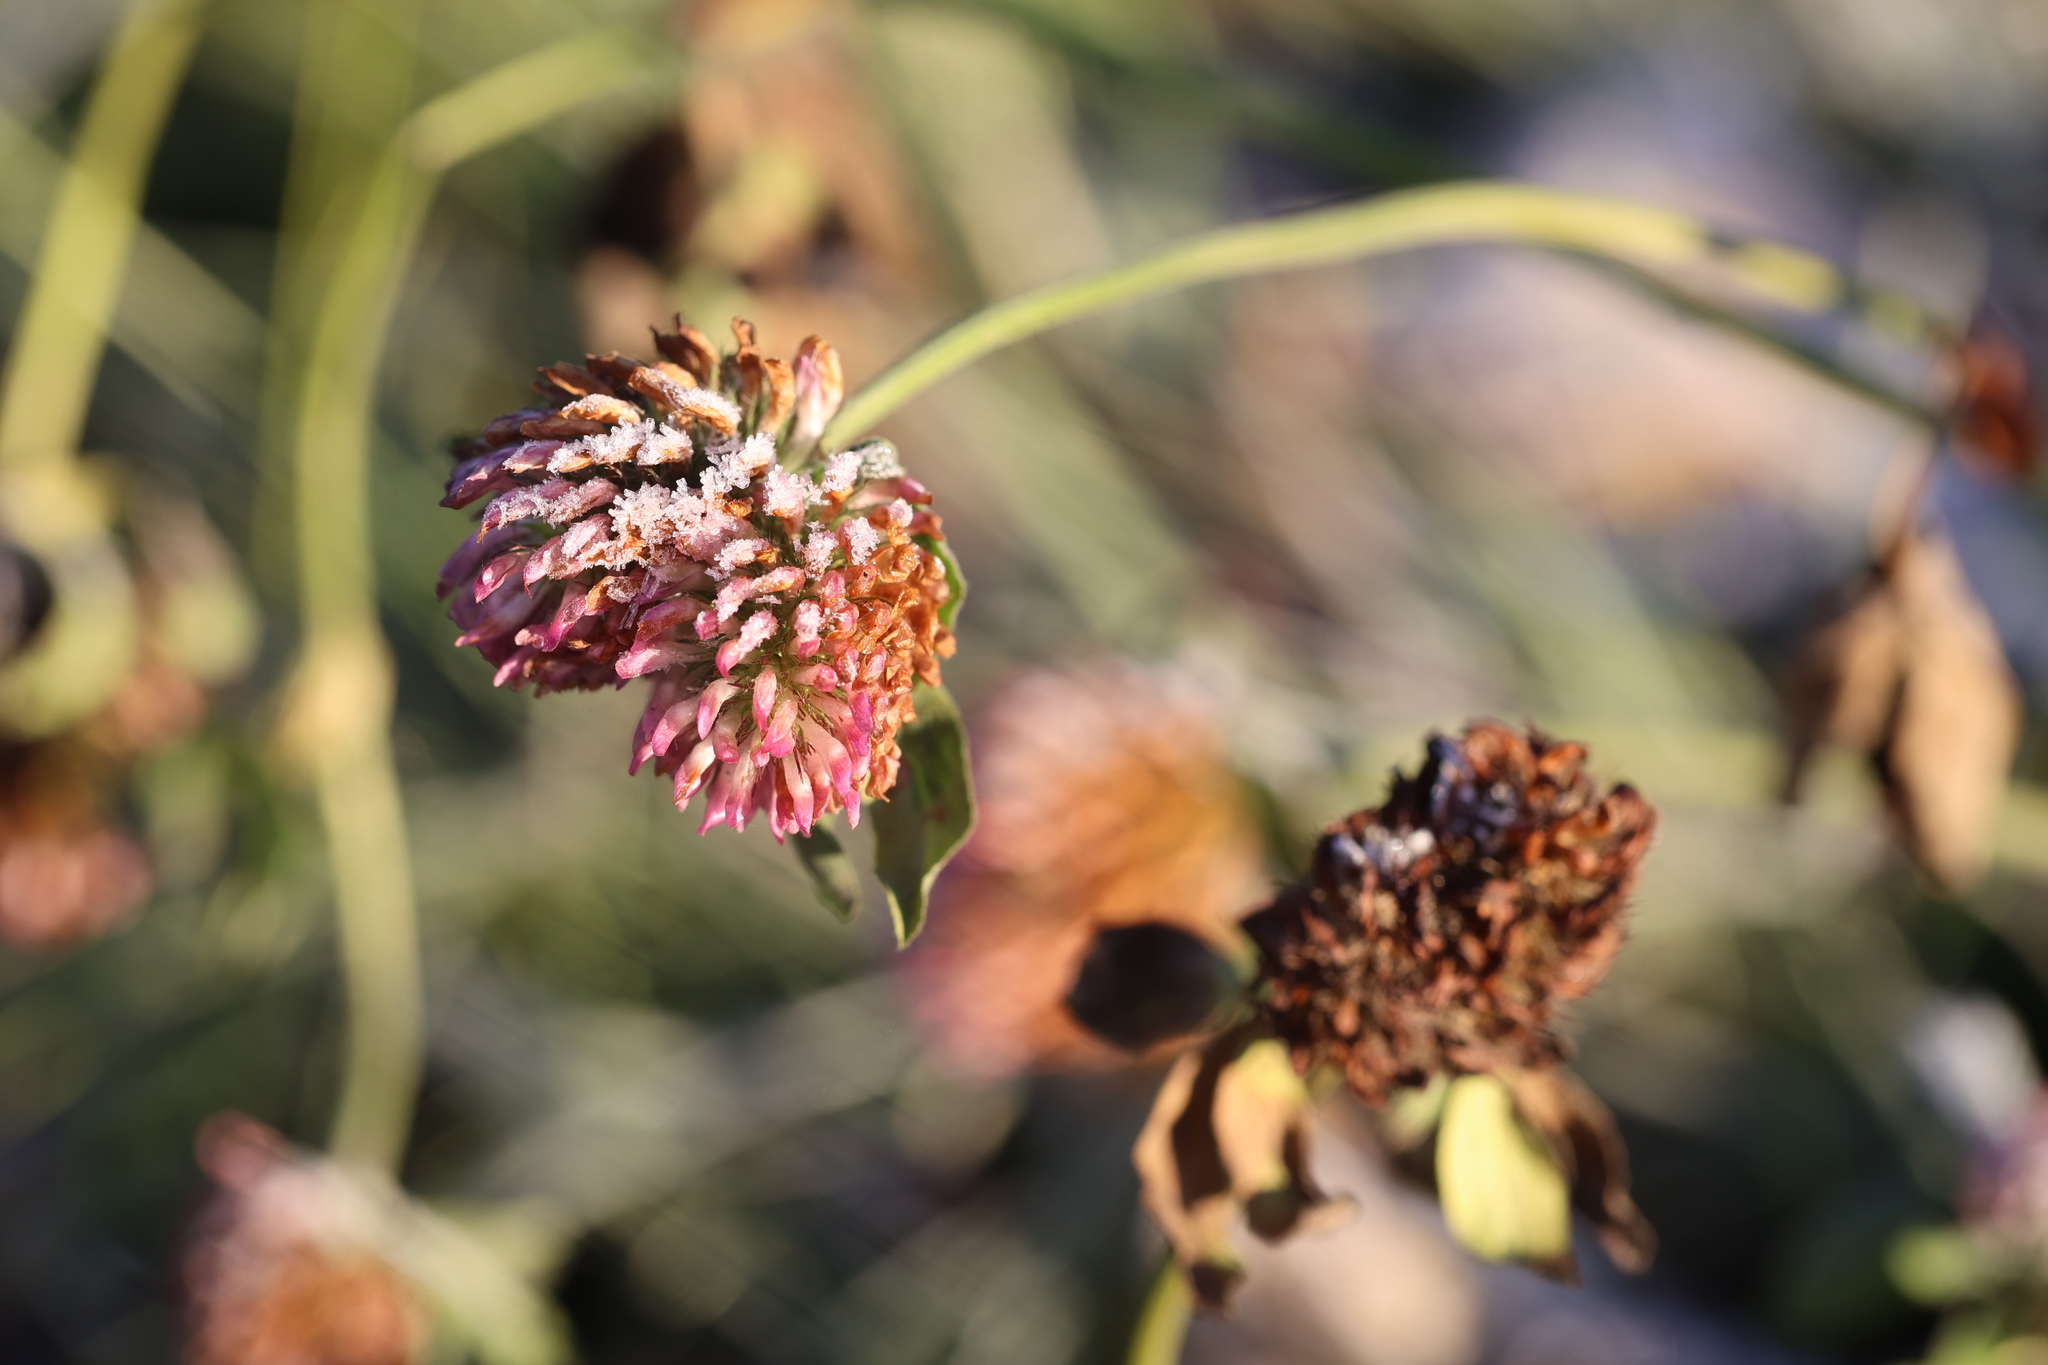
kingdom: Plantae
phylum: Tracheophyta
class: Magnoliopsida
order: Fabales
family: Fabaceae
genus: Trifolium
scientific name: Trifolium pratense
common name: Red clover
